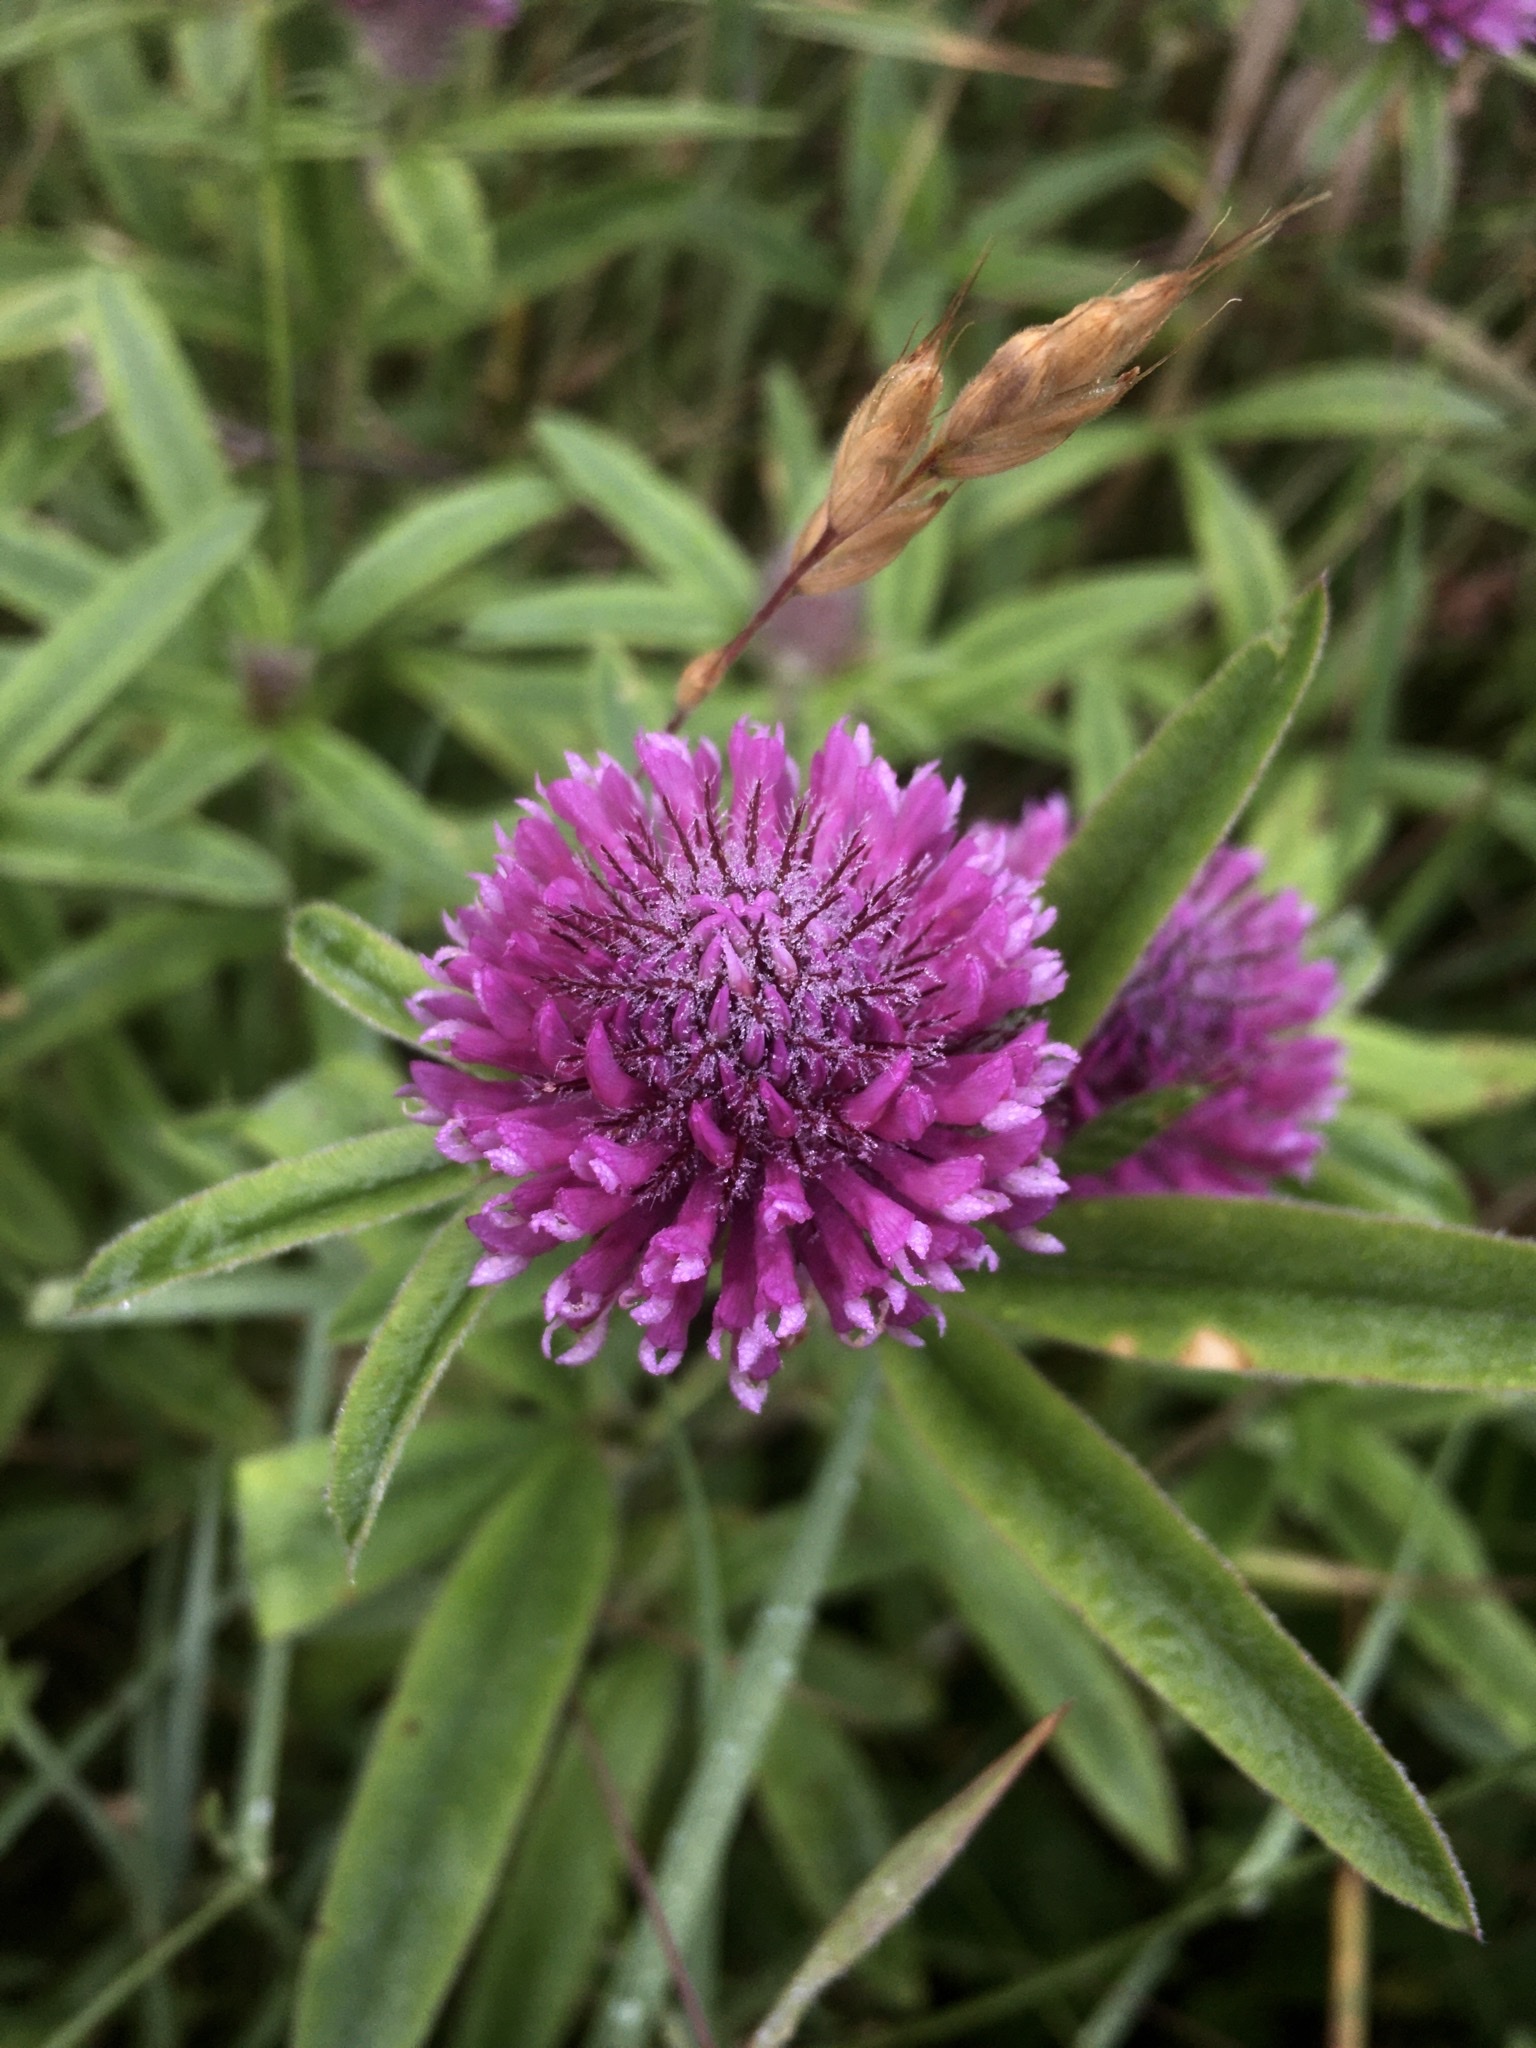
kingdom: Plantae
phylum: Tracheophyta
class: Magnoliopsida
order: Fabales
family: Fabaceae
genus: Trifolium
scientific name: Trifolium alpestre
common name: Owl-head clover
